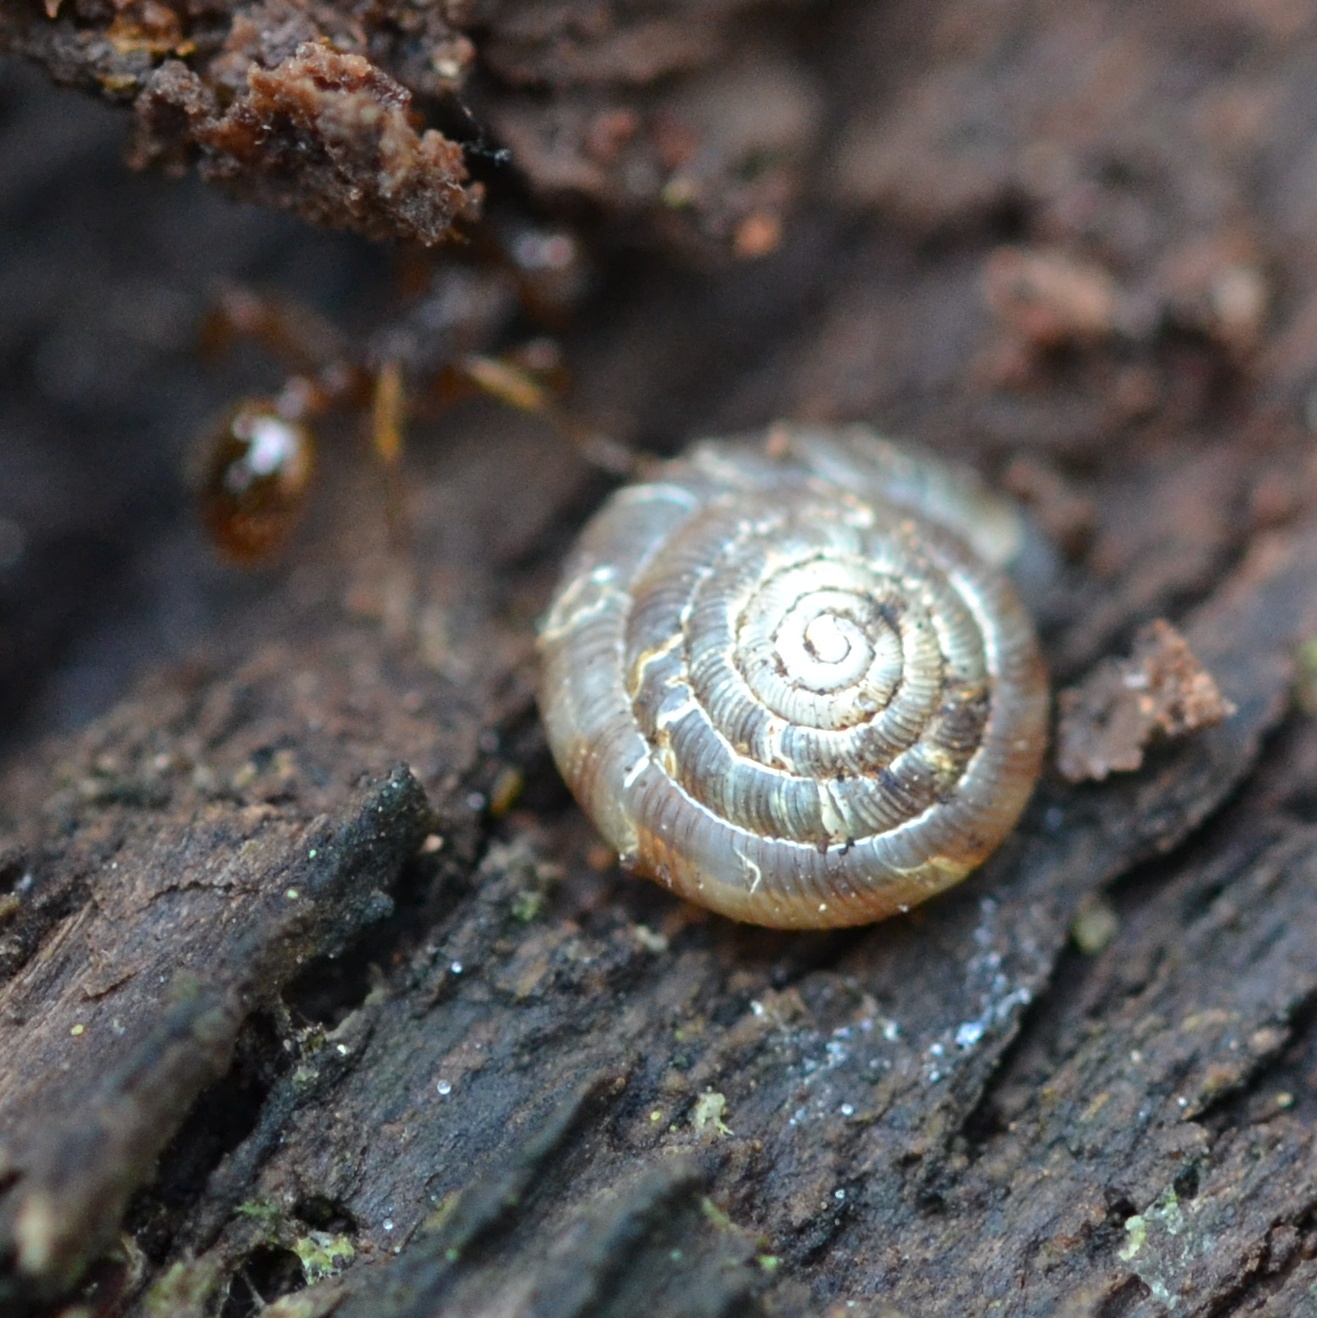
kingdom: Animalia
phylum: Mollusca
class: Gastropoda
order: Stylommatophora
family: Discidae
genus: Discus
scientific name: Discus rotundatus
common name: Rounded snail
